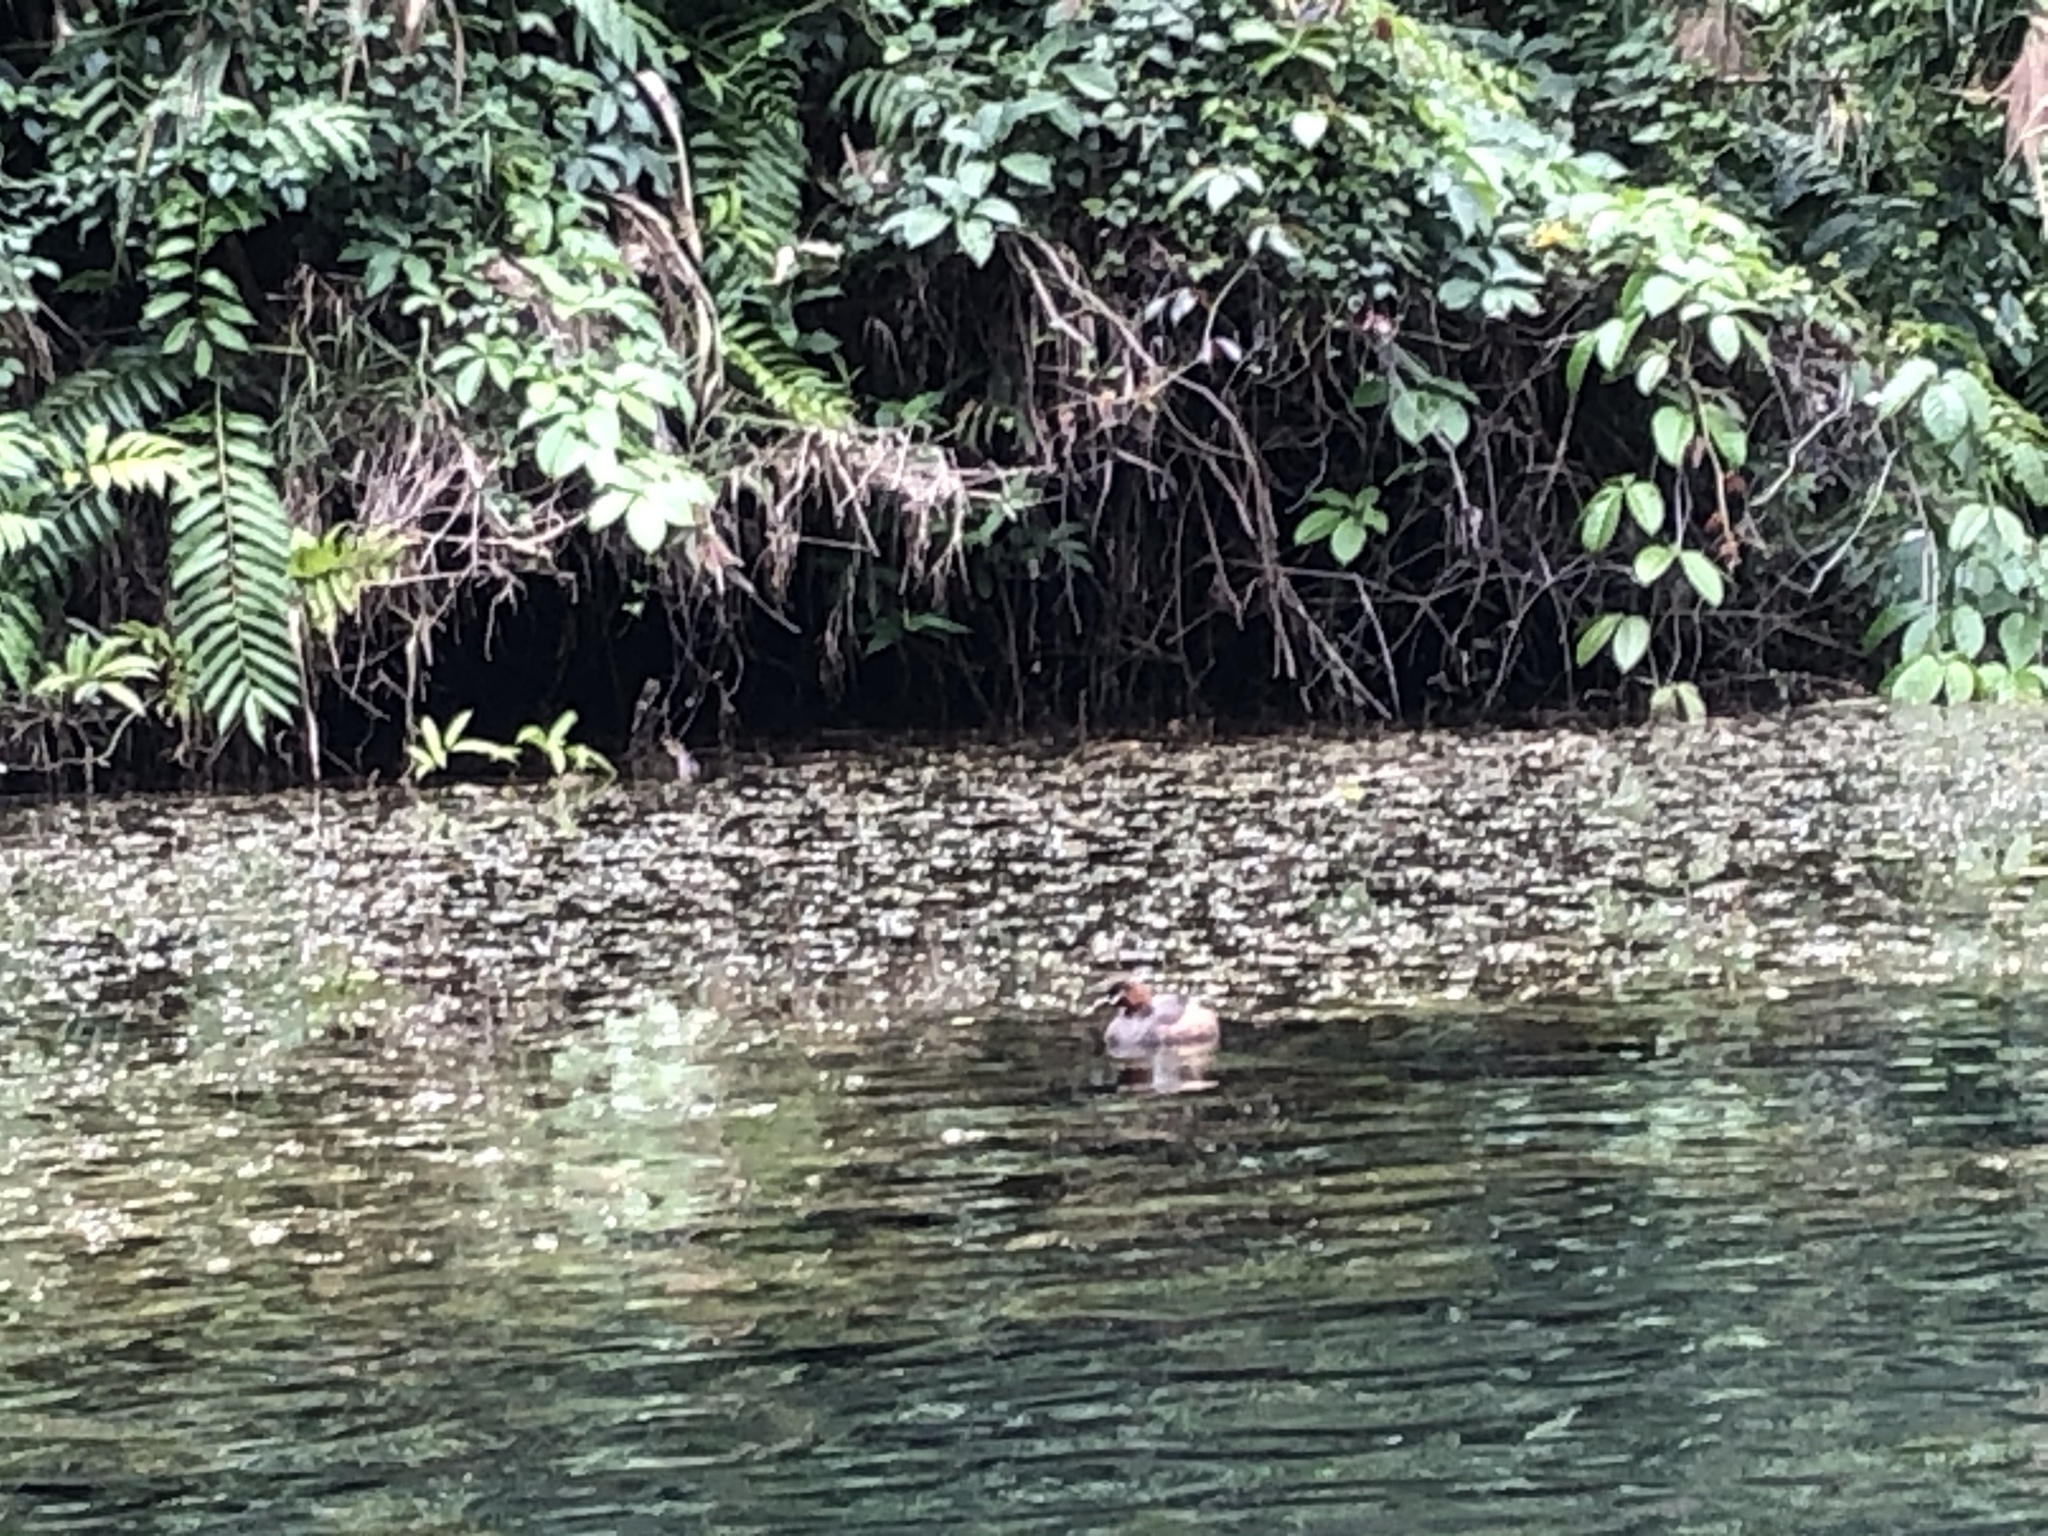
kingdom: Animalia
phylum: Chordata
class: Aves
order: Podicipediformes
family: Podicipedidae
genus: Tachybaptus
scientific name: Tachybaptus ruficollis
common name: Little grebe
